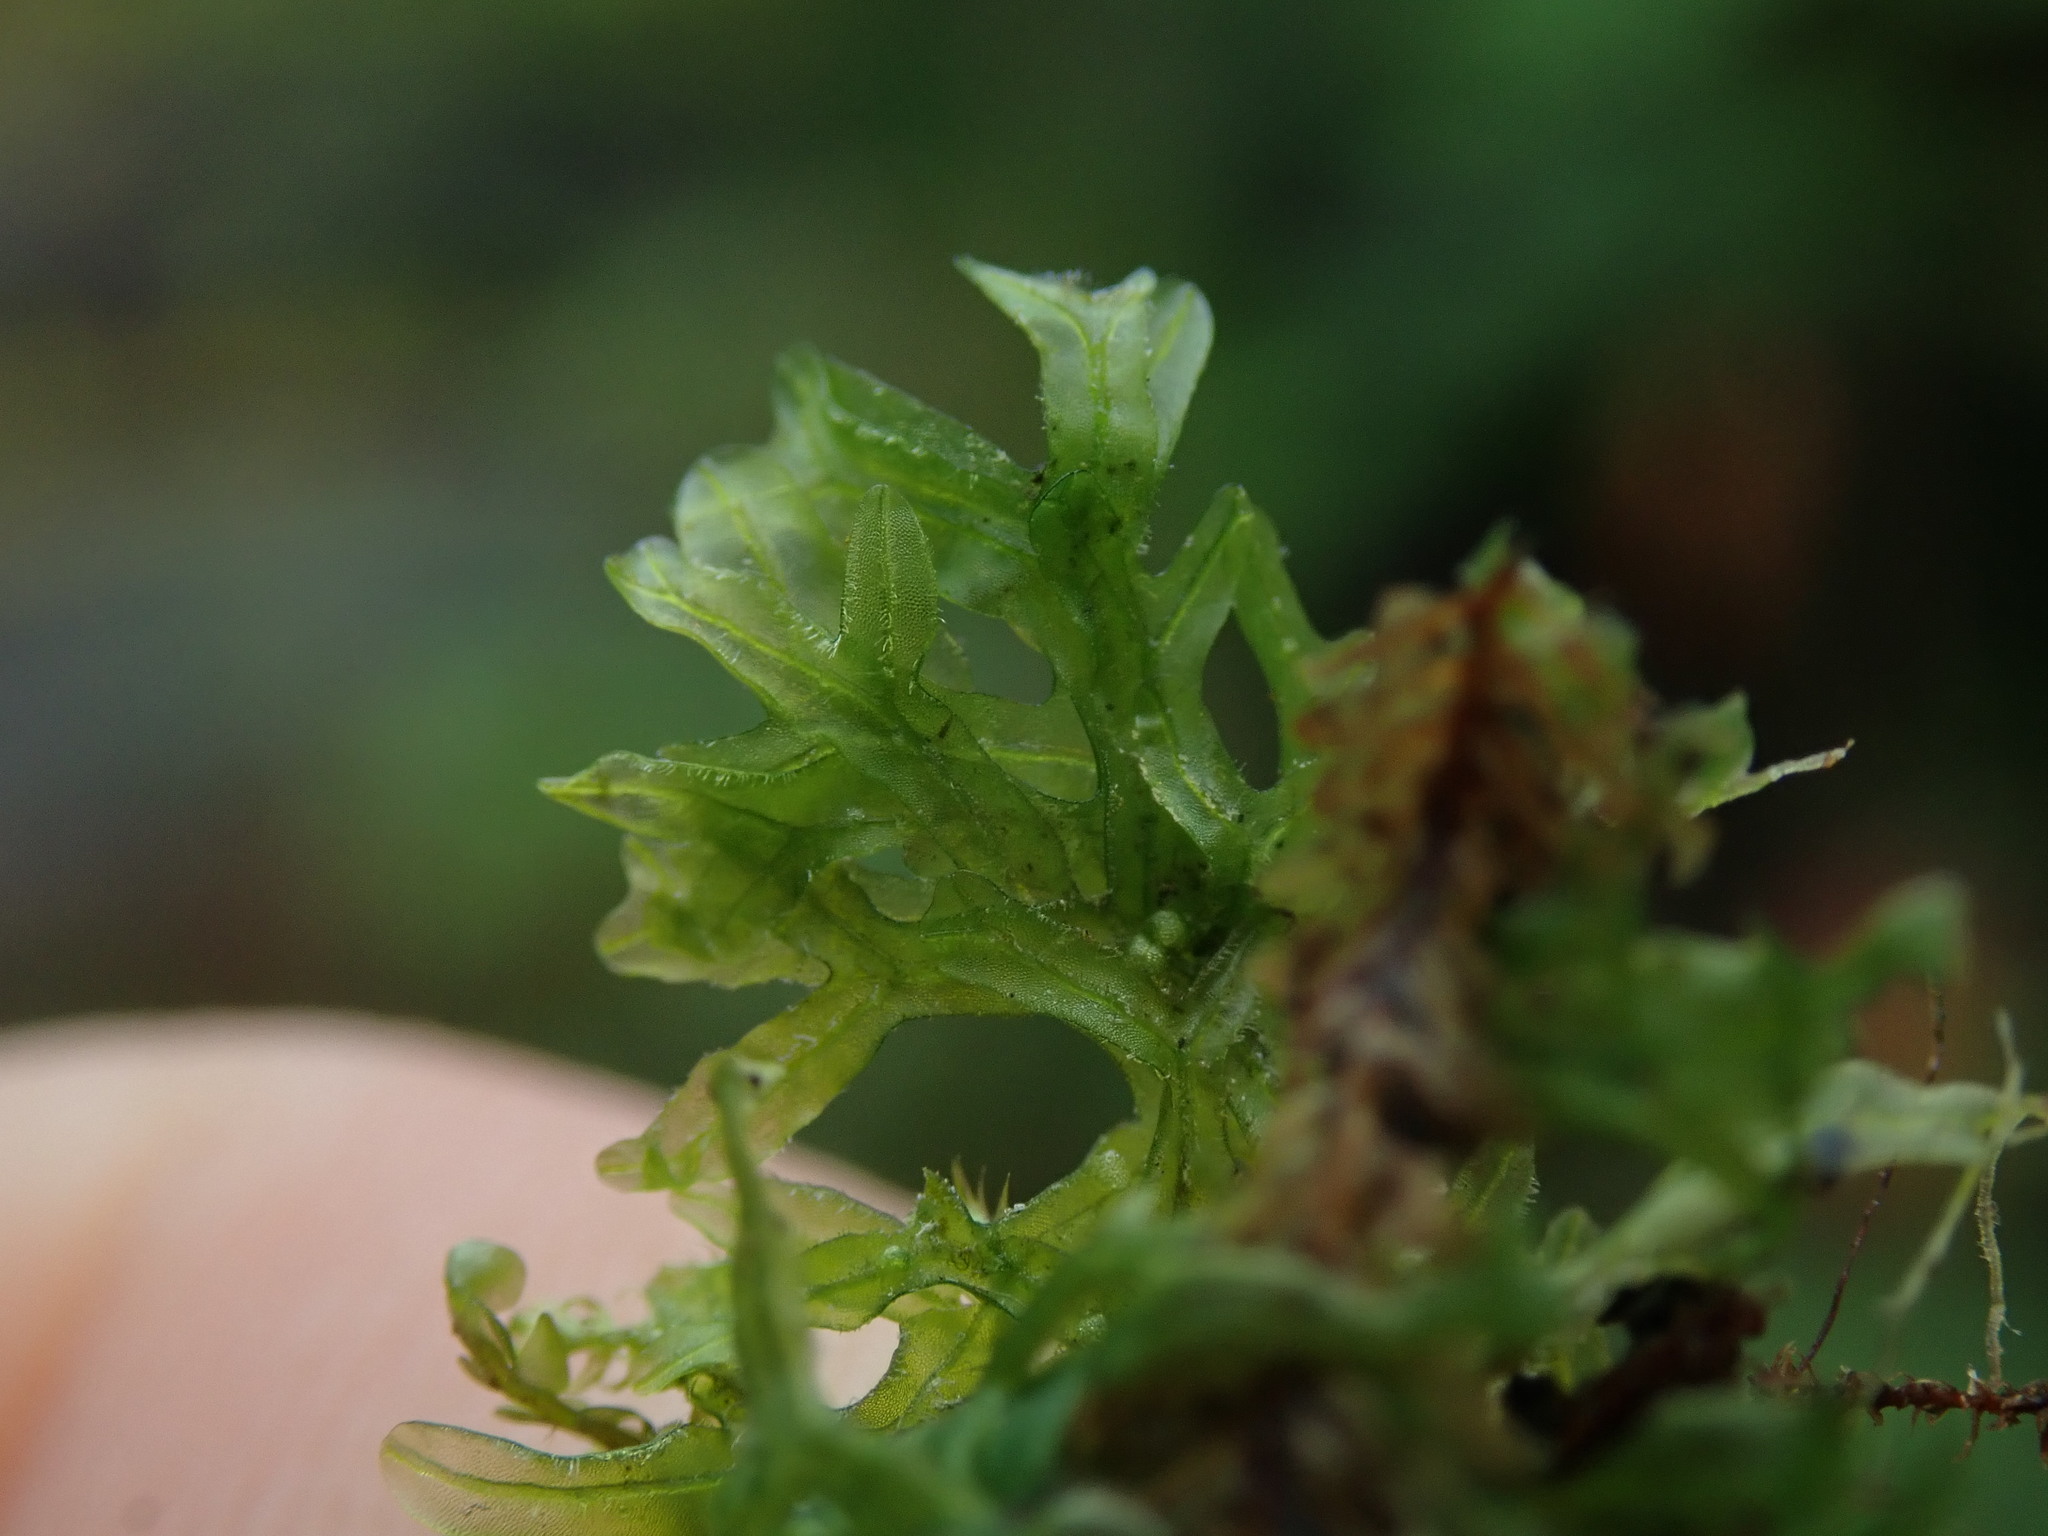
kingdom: Plantae
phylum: Marchantiophyta
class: Jungermanniopsida
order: Metzgeriales
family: Metzgeriaceae
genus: Metzgeria
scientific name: Metzgeria conjugata
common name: Rock veilwort
